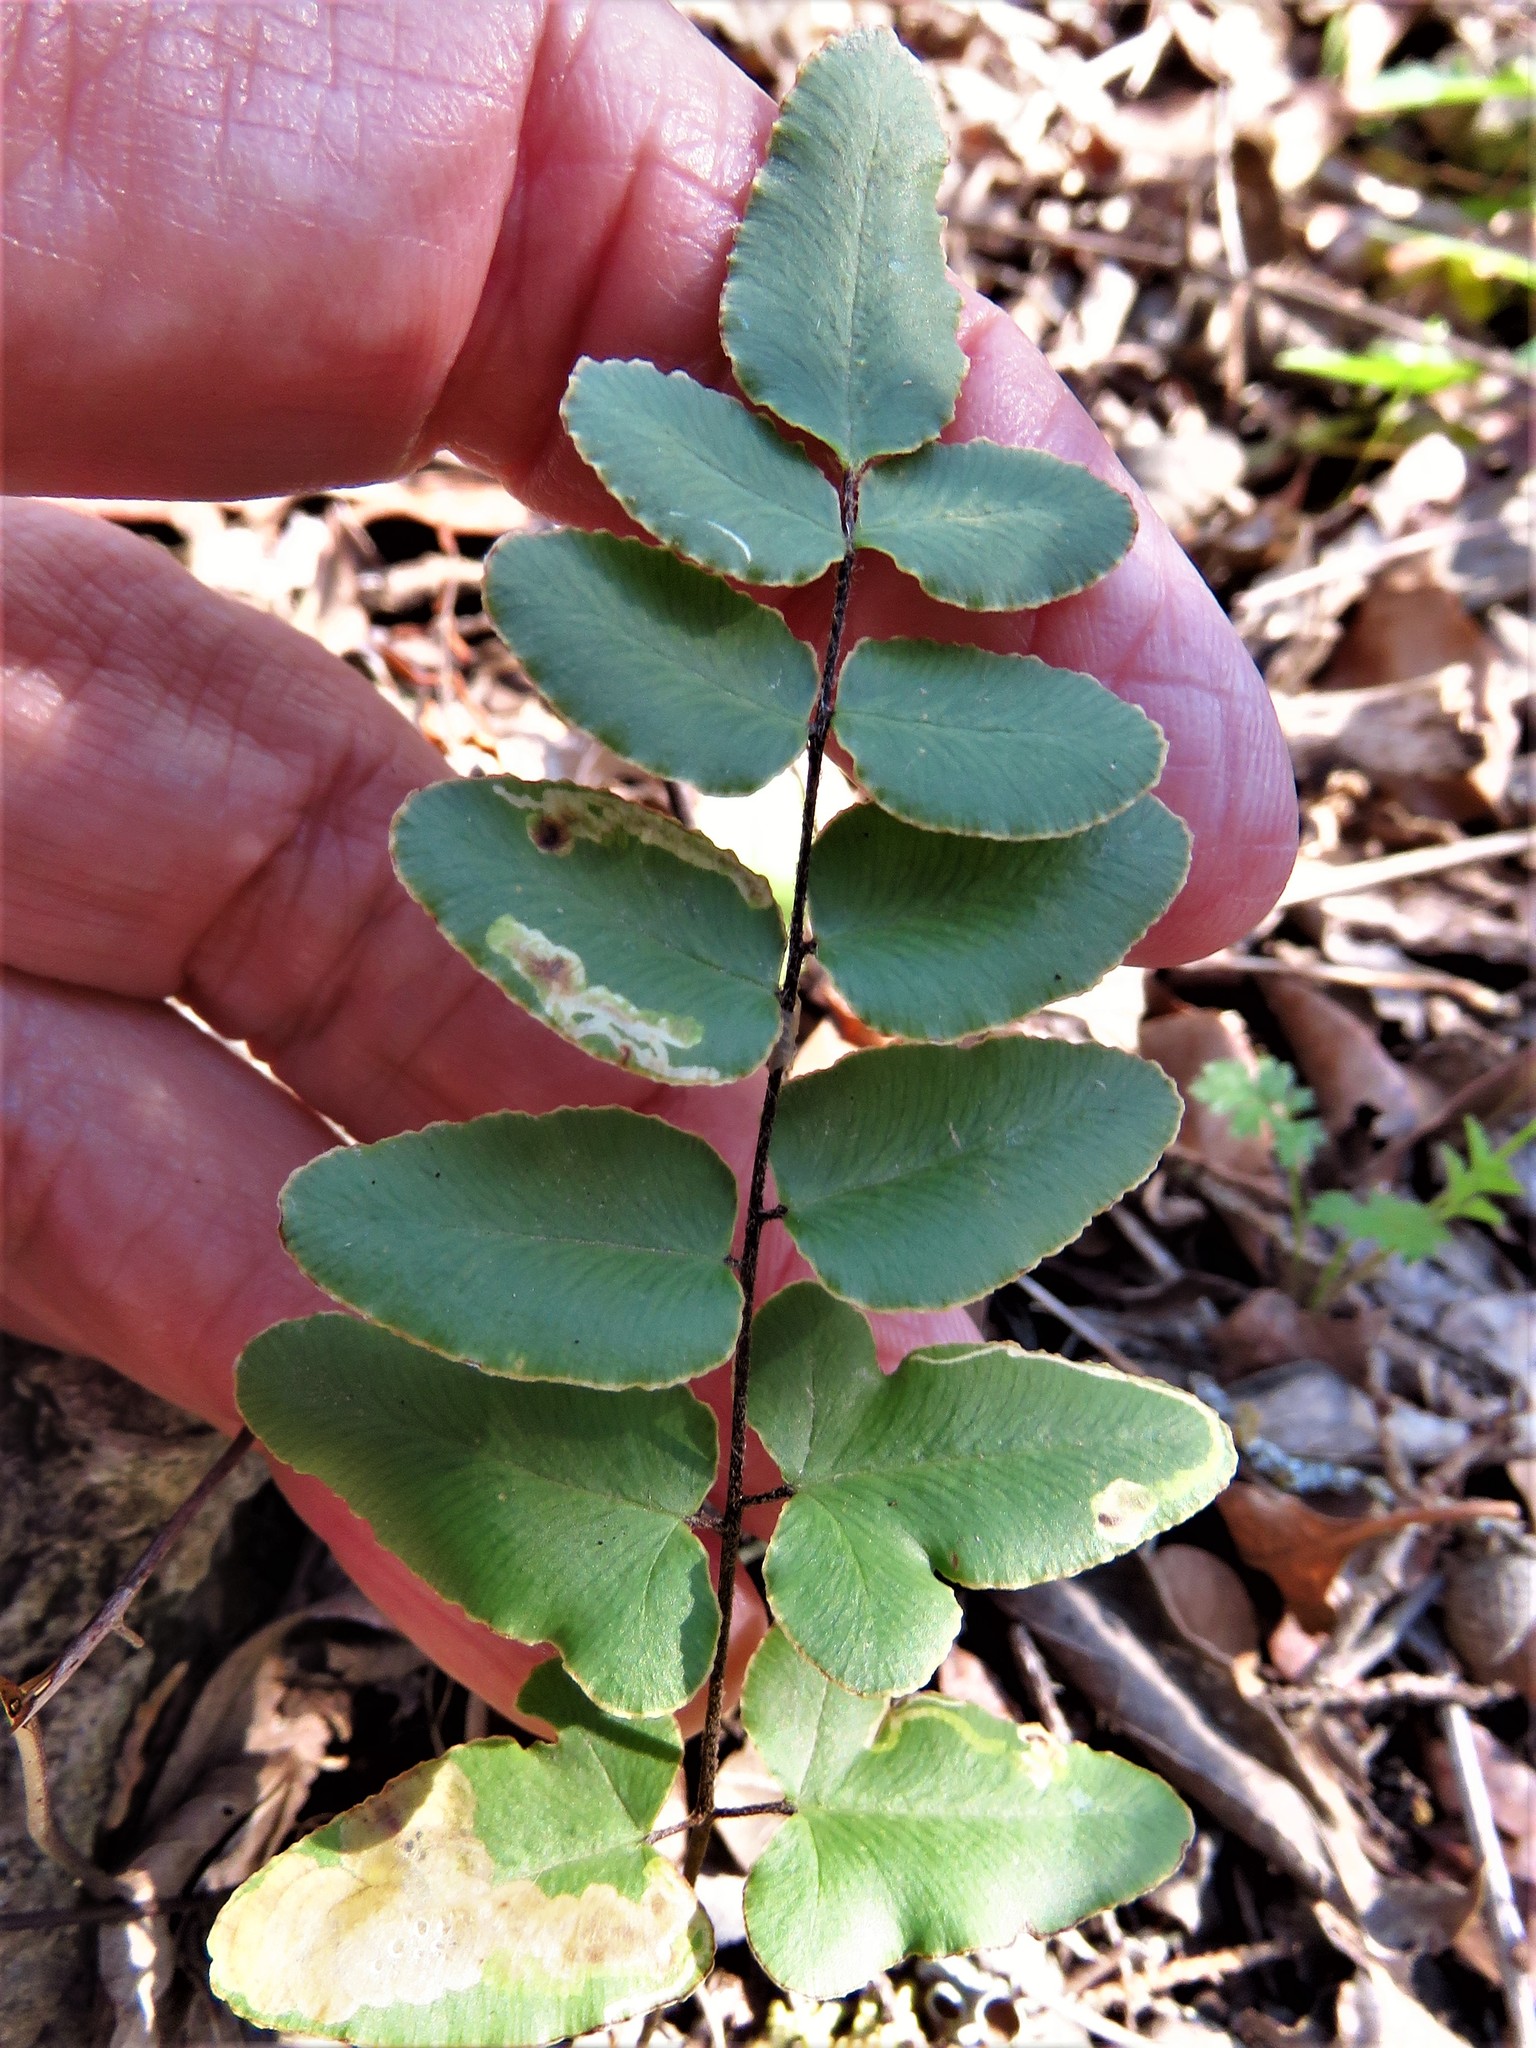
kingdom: Plantae
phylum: Tracheophyta
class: Polypodiopsida
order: Polypodiales
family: Pteridaceae
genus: Pellaea
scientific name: Pellaea atropurpurea
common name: Hairy cliffbrake
